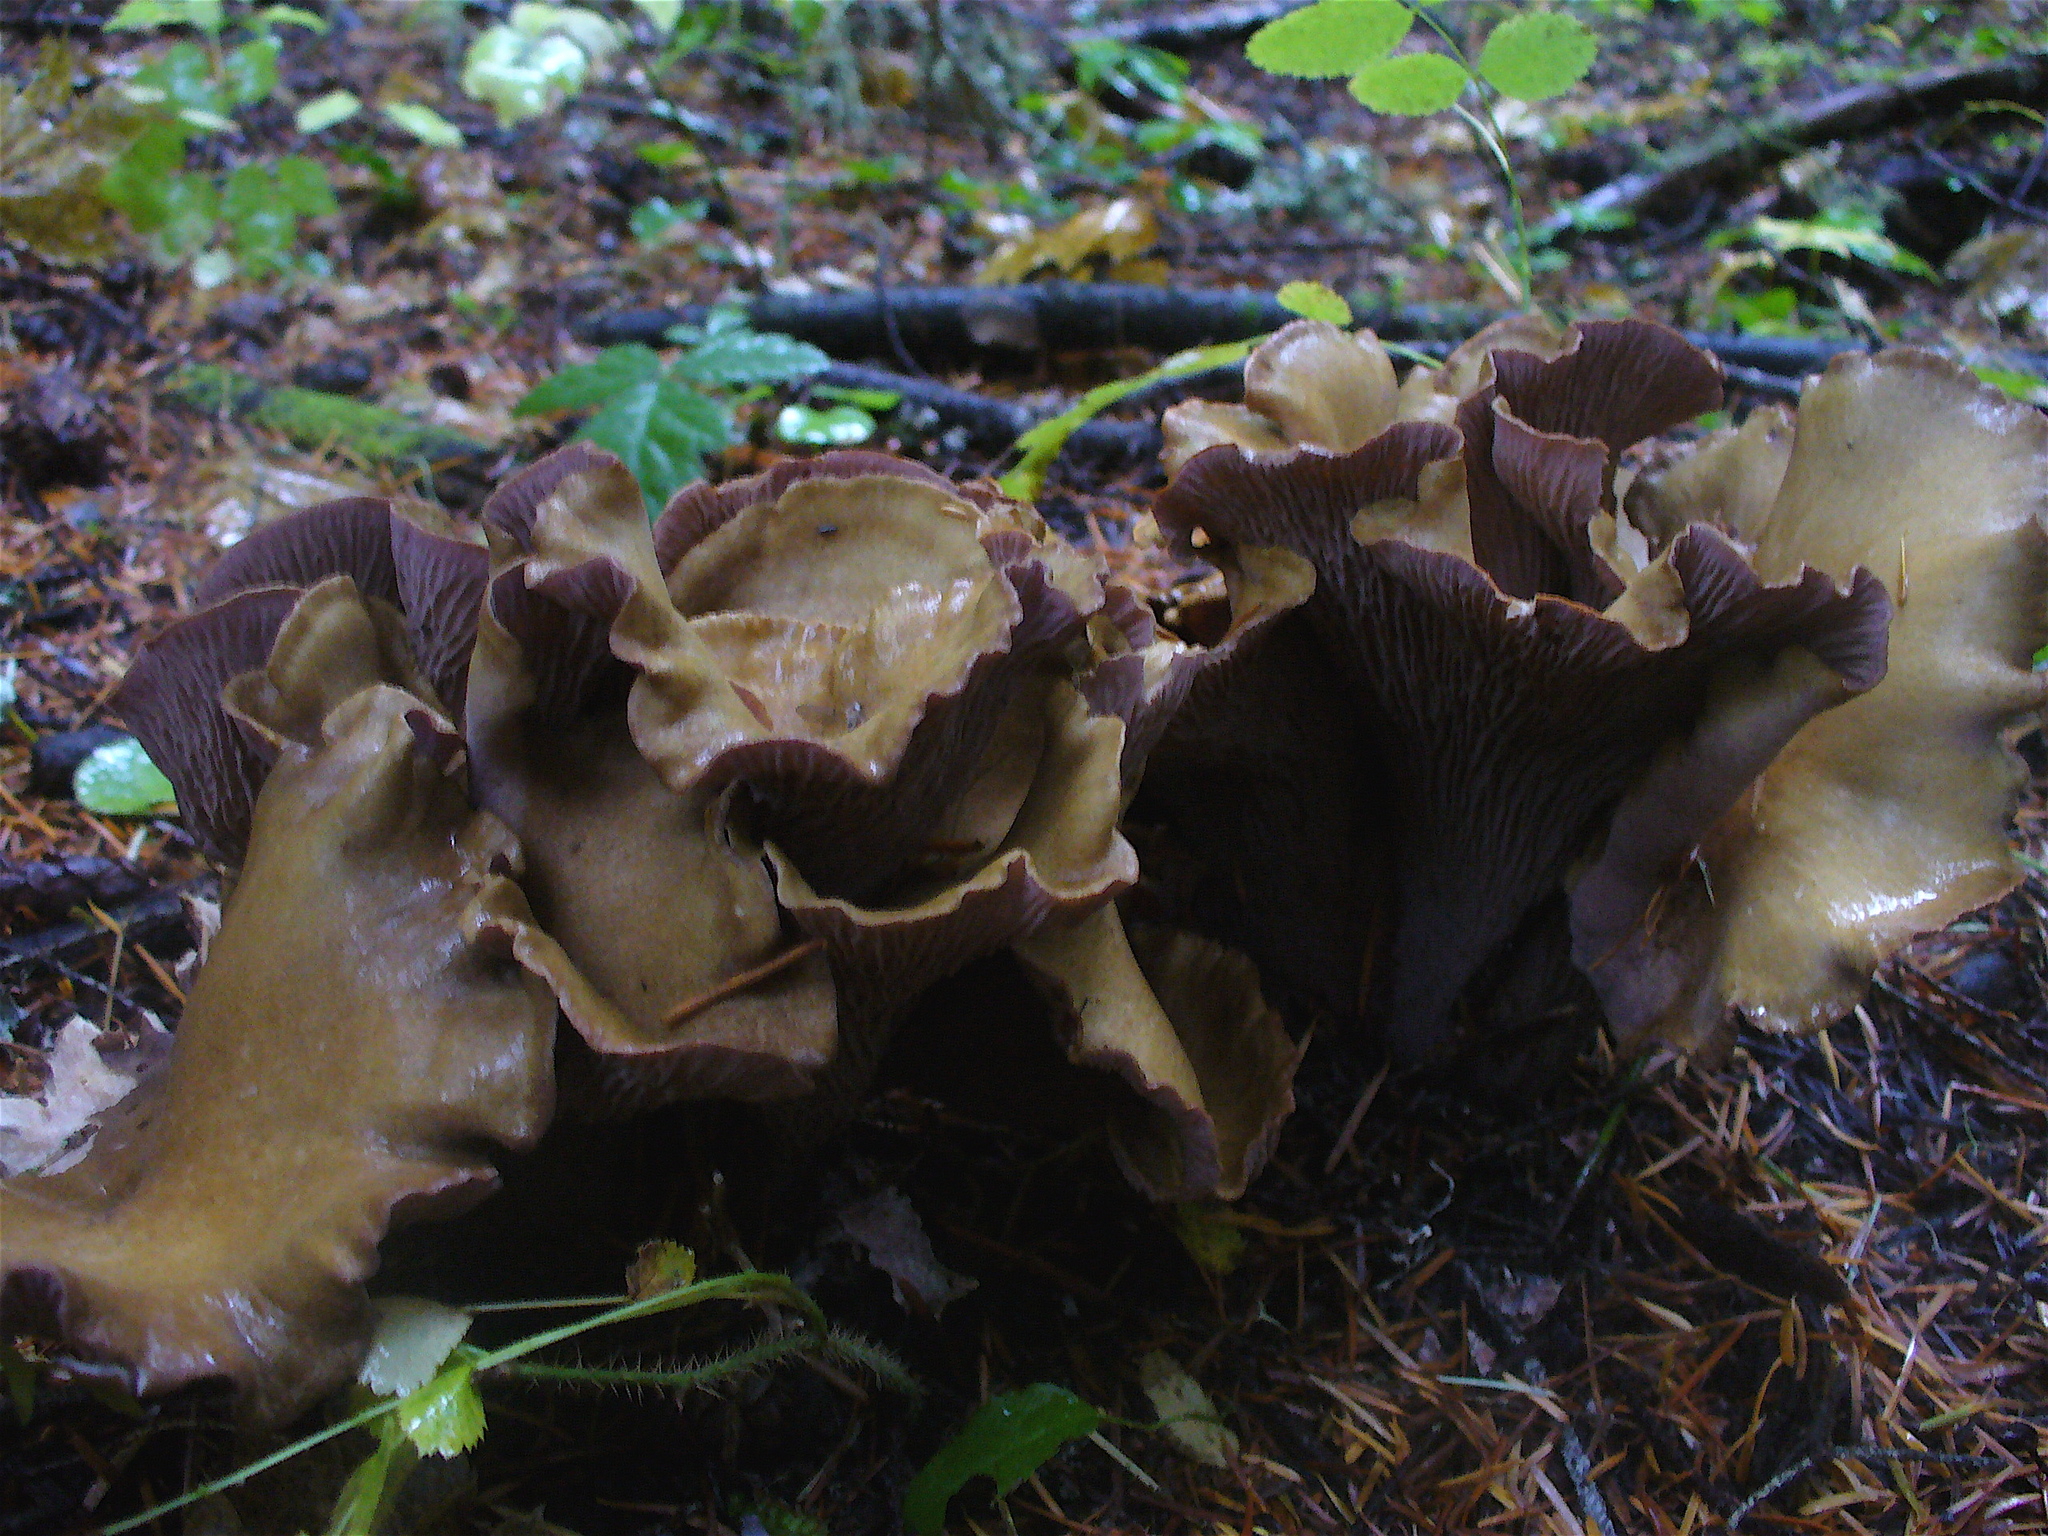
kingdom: Fungi
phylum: Basidiomycota
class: Agaricomycetes
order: Gomphales
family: Gomphaceae
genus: Gomphus
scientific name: Gomphus clavatus
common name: Pig's ear
